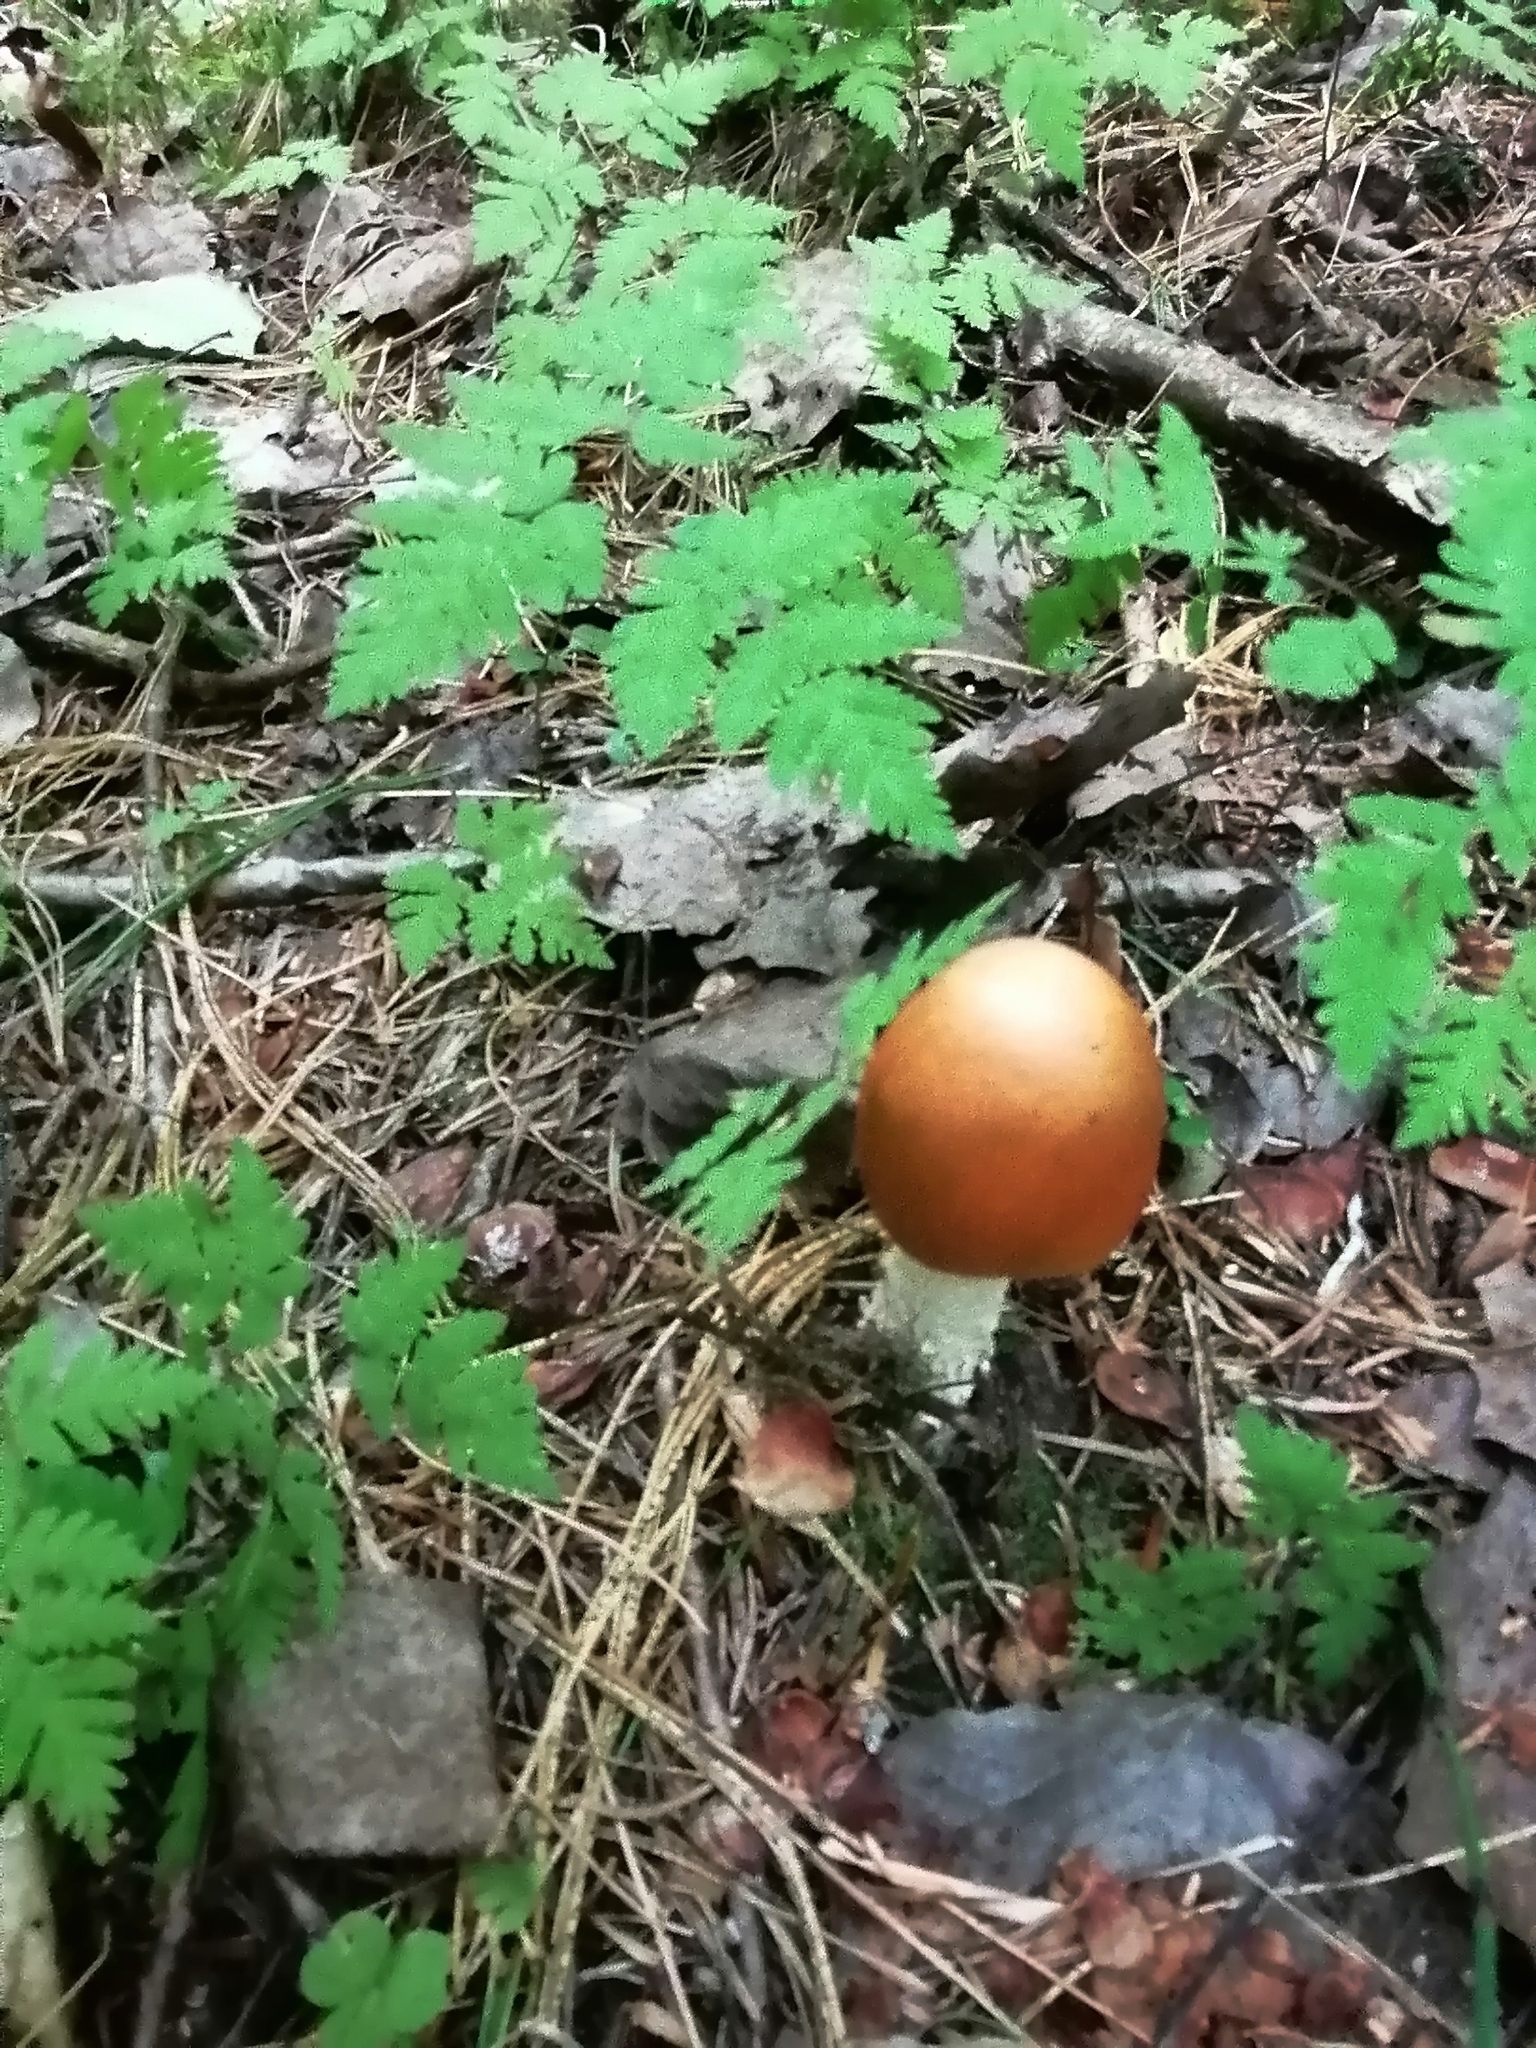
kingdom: Fungi
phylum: Basidiomycota
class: Agaricomycetes
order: Agaricales
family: Amanitaceae
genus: Amanita
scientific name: Amanita fulva
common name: Tawny grisette
